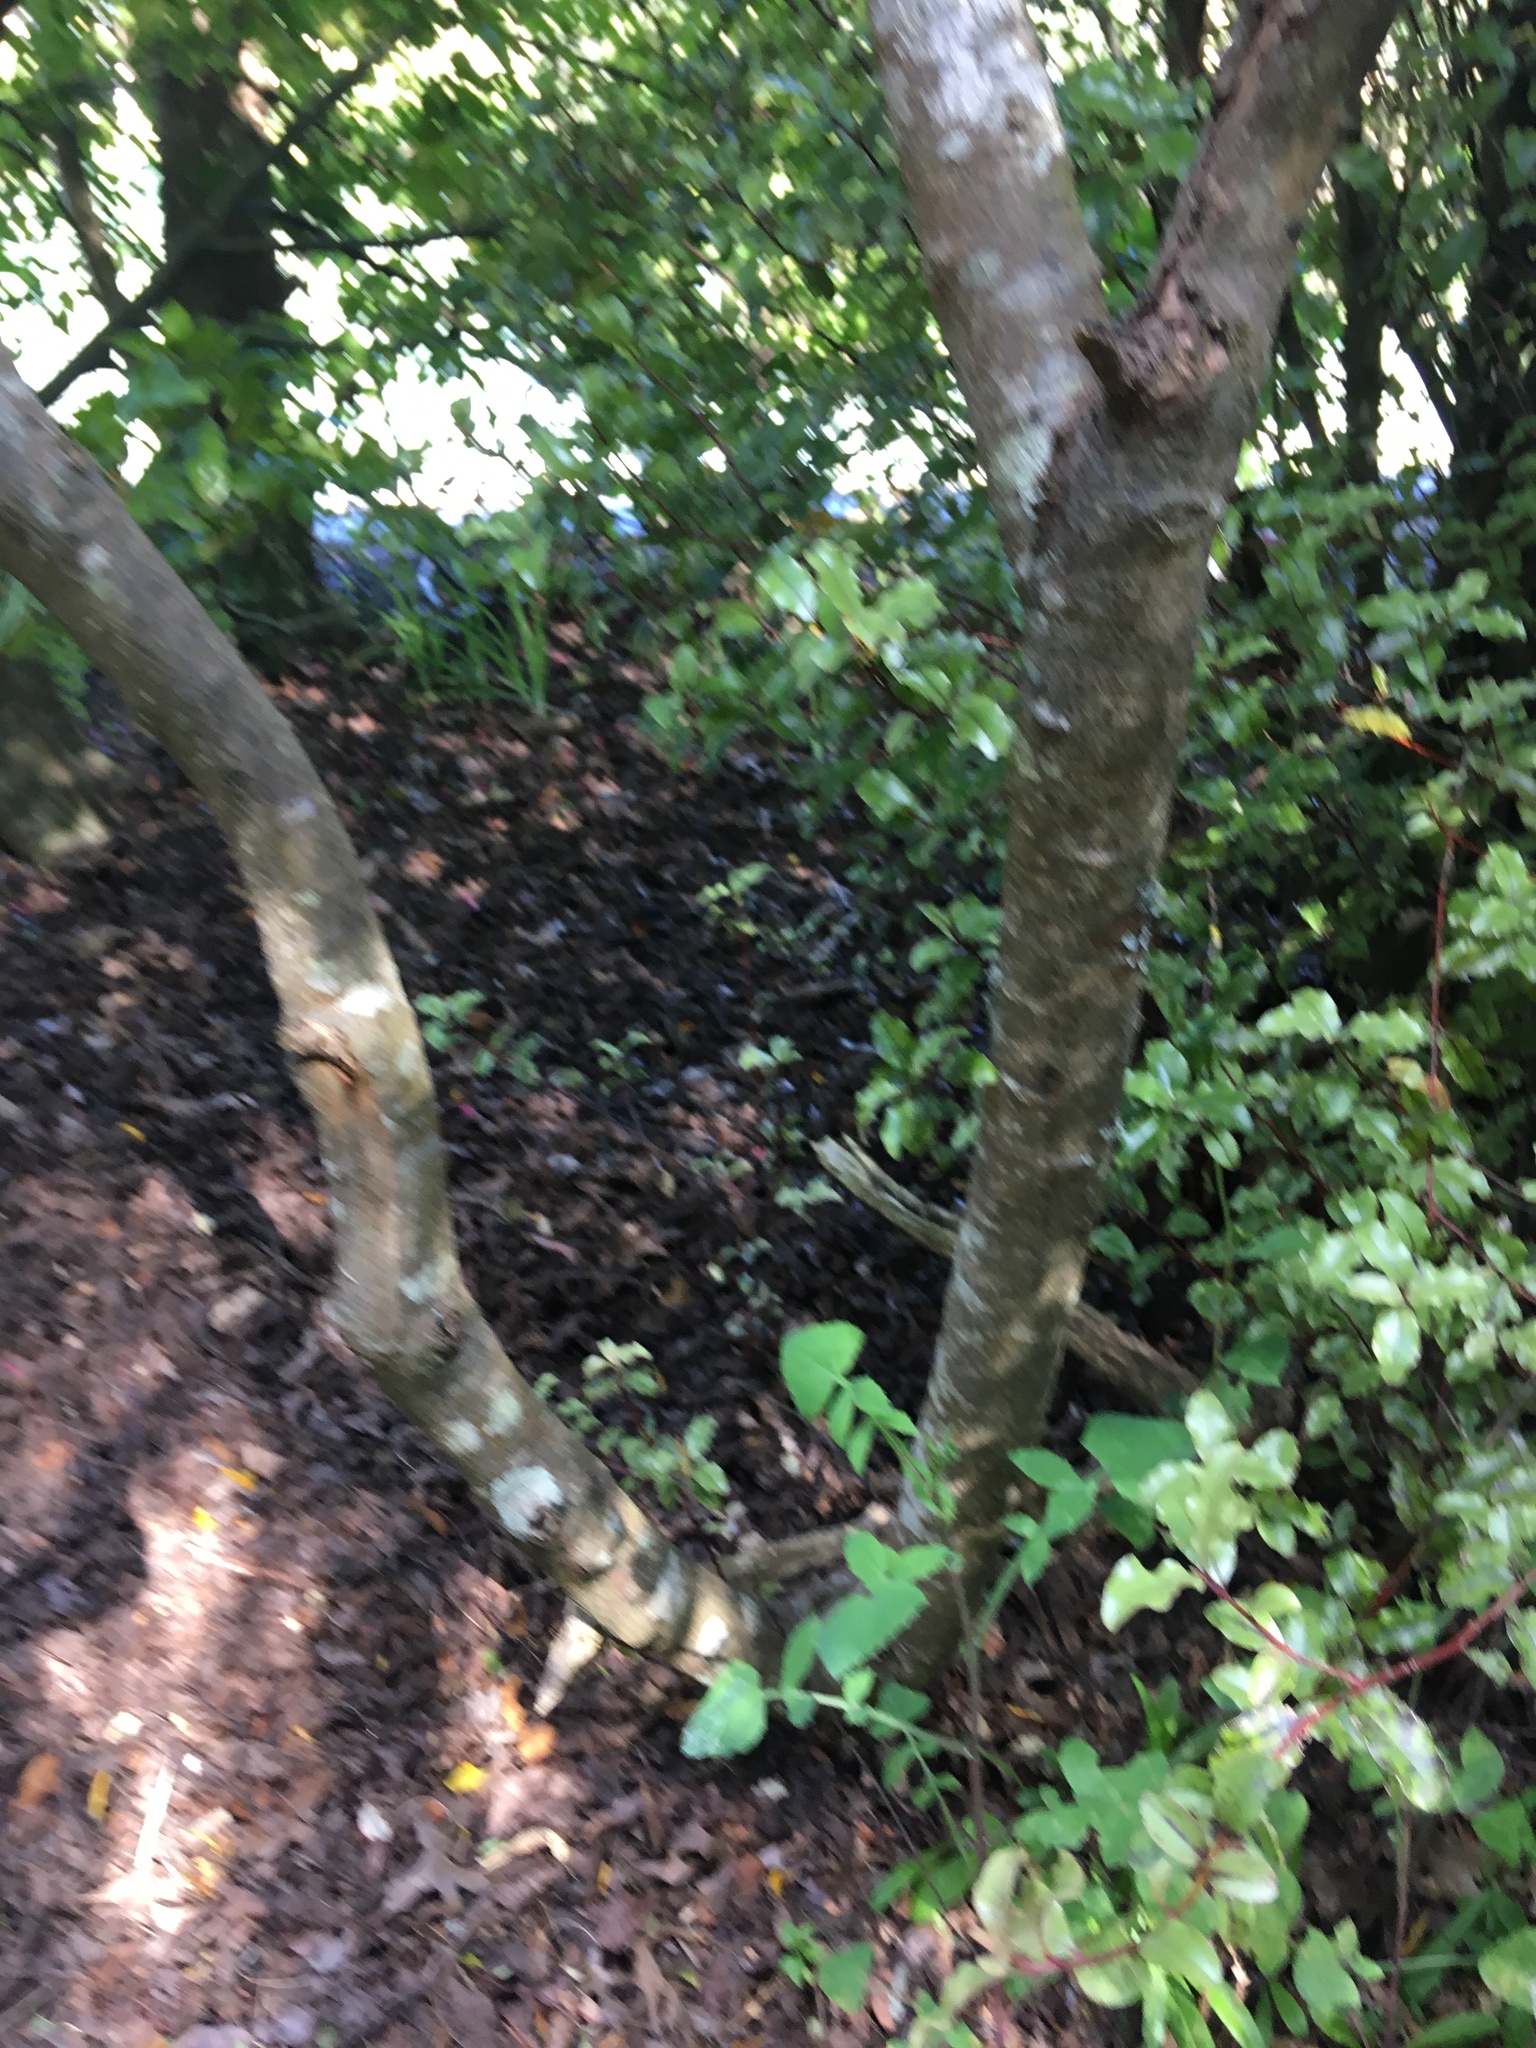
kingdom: Plantae
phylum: Tracheophyta
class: Magnoliopsida
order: Ericales
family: Primulaceae
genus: Myrsine
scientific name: Myrsine australis
